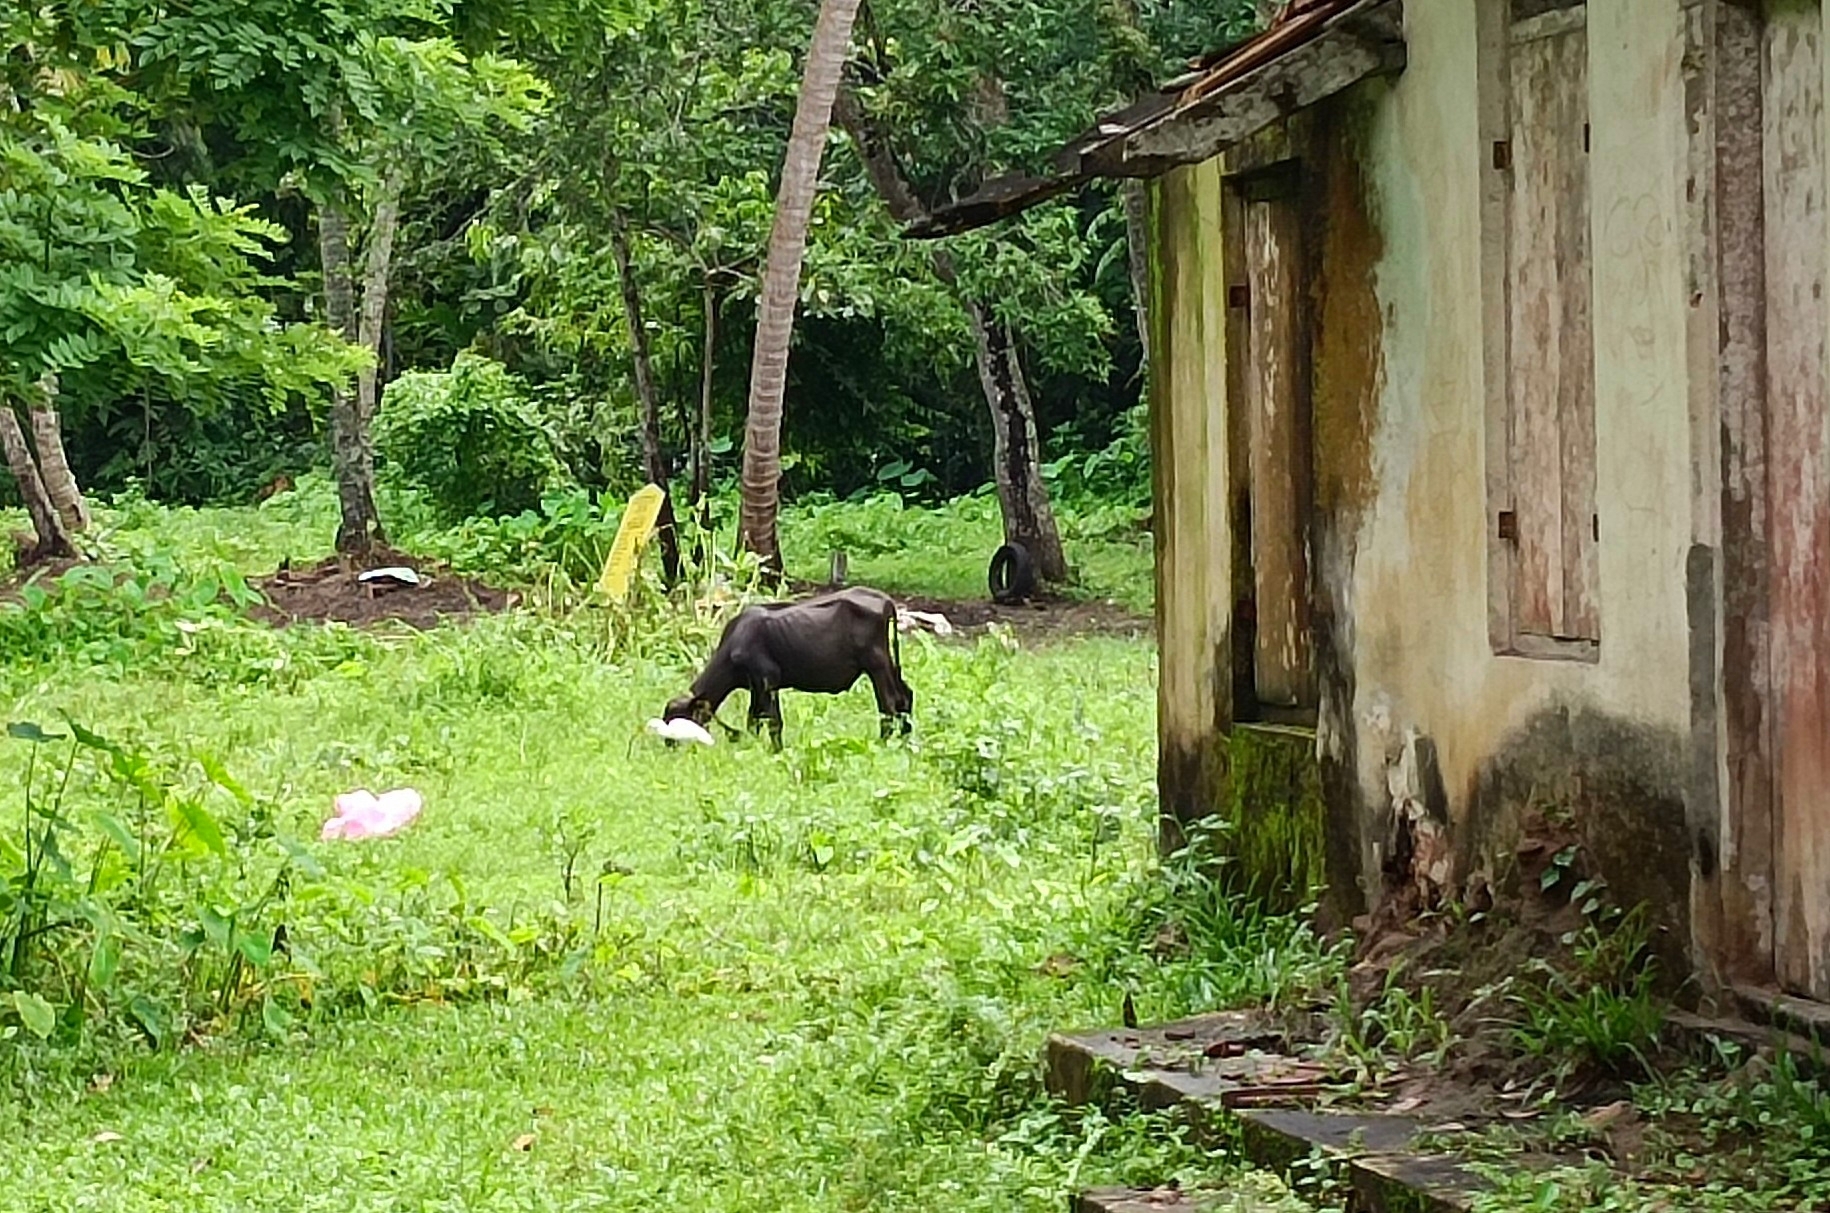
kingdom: Animalia
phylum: Chordata
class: Aves
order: Pelecaniformes
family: Ardeidae
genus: Bubulcus
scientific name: Bubulcus coromandus
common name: Eastern cattle egret
